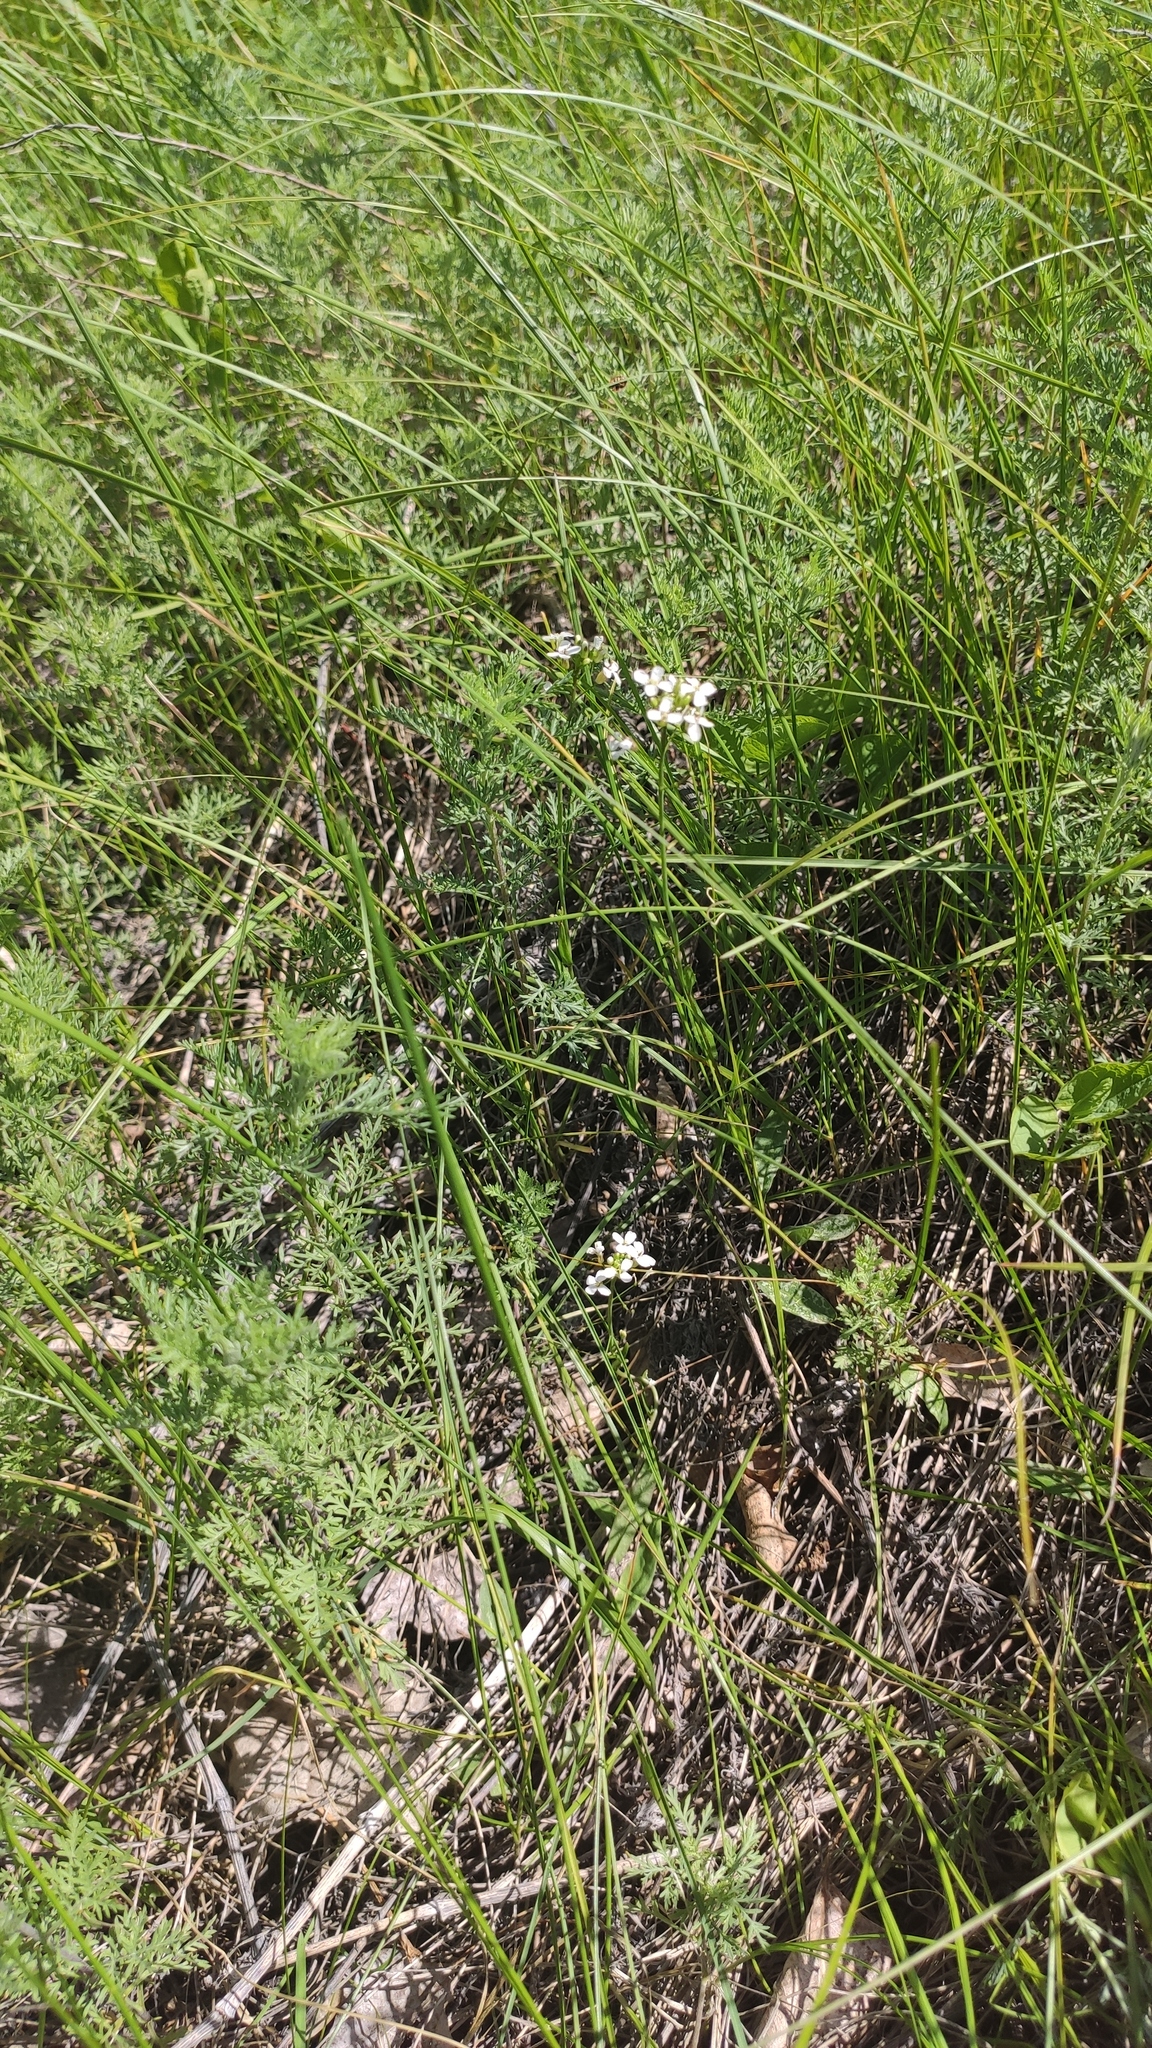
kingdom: Plantae
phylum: Tracheophyta
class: Magnoliopsida
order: Brassicales
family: Brassicaceae
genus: Arabis
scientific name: Arabis sagittata
